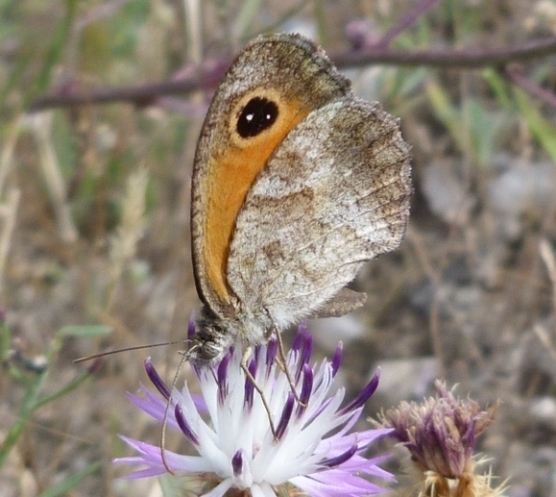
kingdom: Animalia
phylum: Arthropoda
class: Insecta
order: Lepidoptera
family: Nymphalidae
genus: Pyronia
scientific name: Pyronia cecilia
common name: Southern gatekeeper
